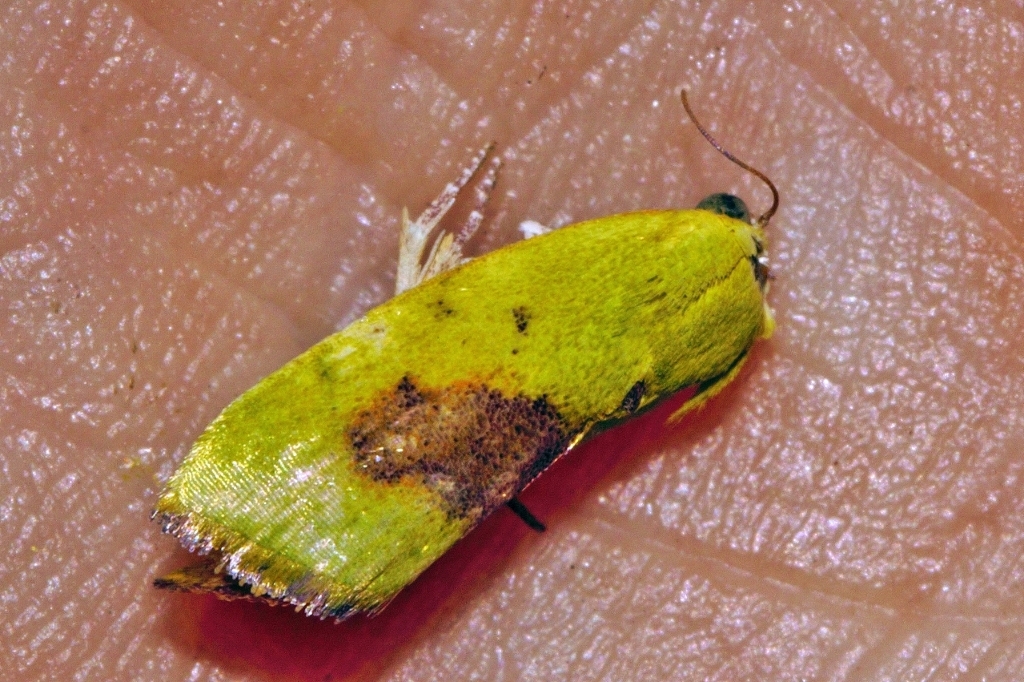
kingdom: Animalia
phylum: Arthropoda
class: Insecta
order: Lepidoptera
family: Nolidae
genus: Earias
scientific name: Earias biplaga
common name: Spiny bollworm
